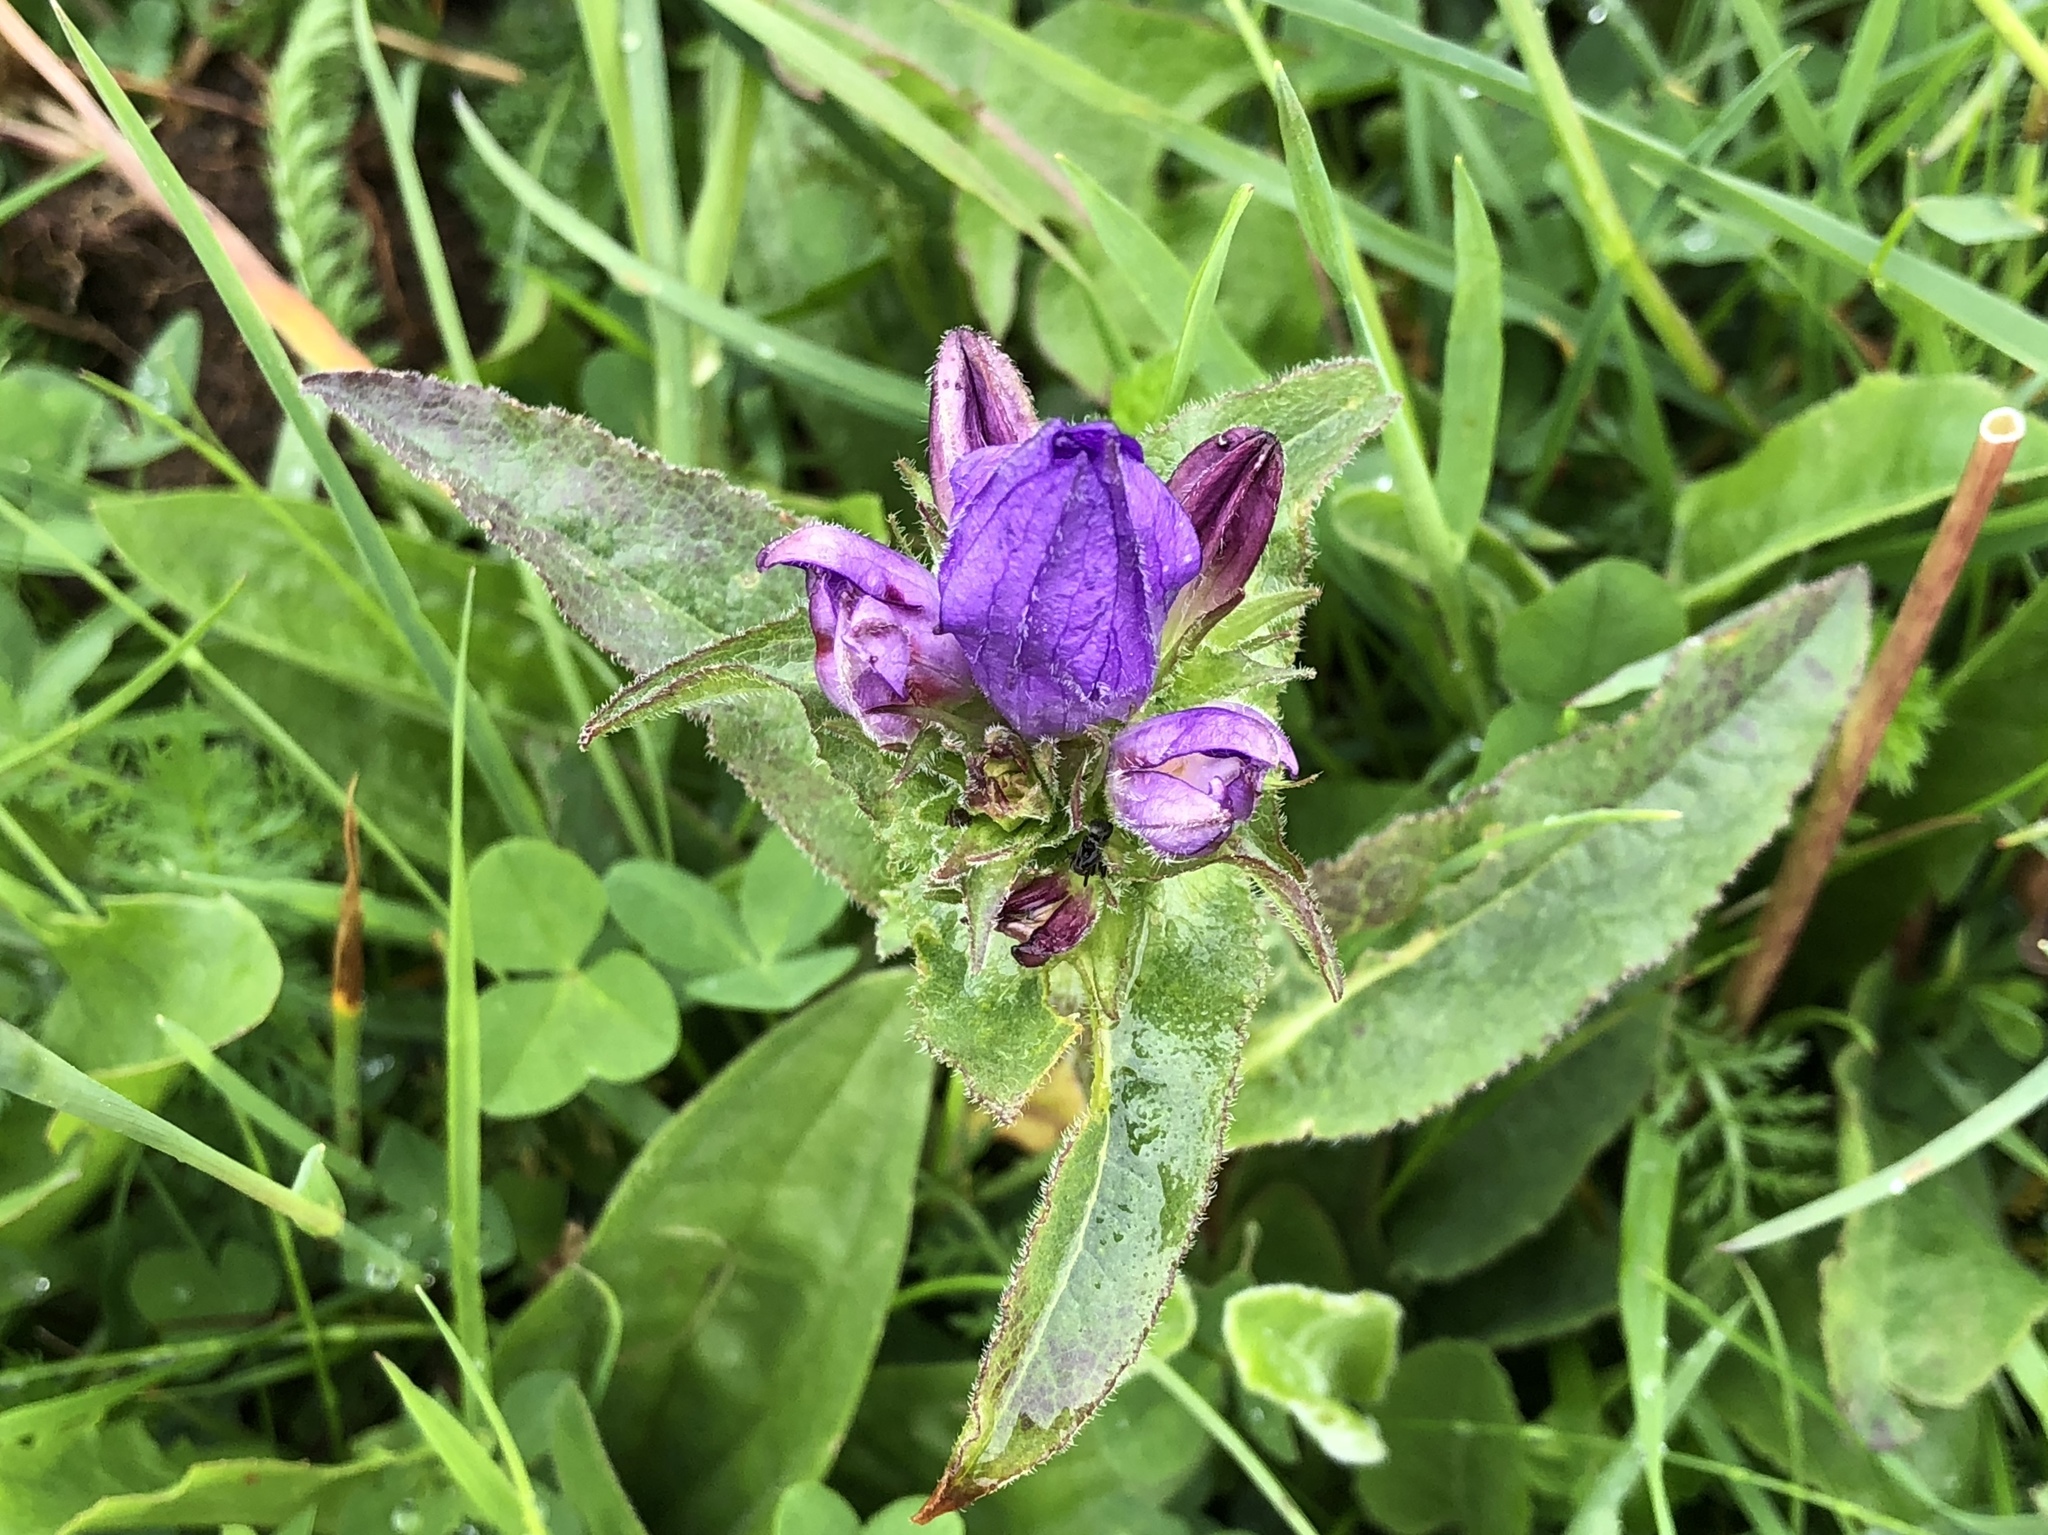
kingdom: Plantae
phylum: Tracheophyta
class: Magnoliopsida
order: Asterales
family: Campanulaceae
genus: Campanula
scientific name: Campanula glomerata
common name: Clustered bellflower
